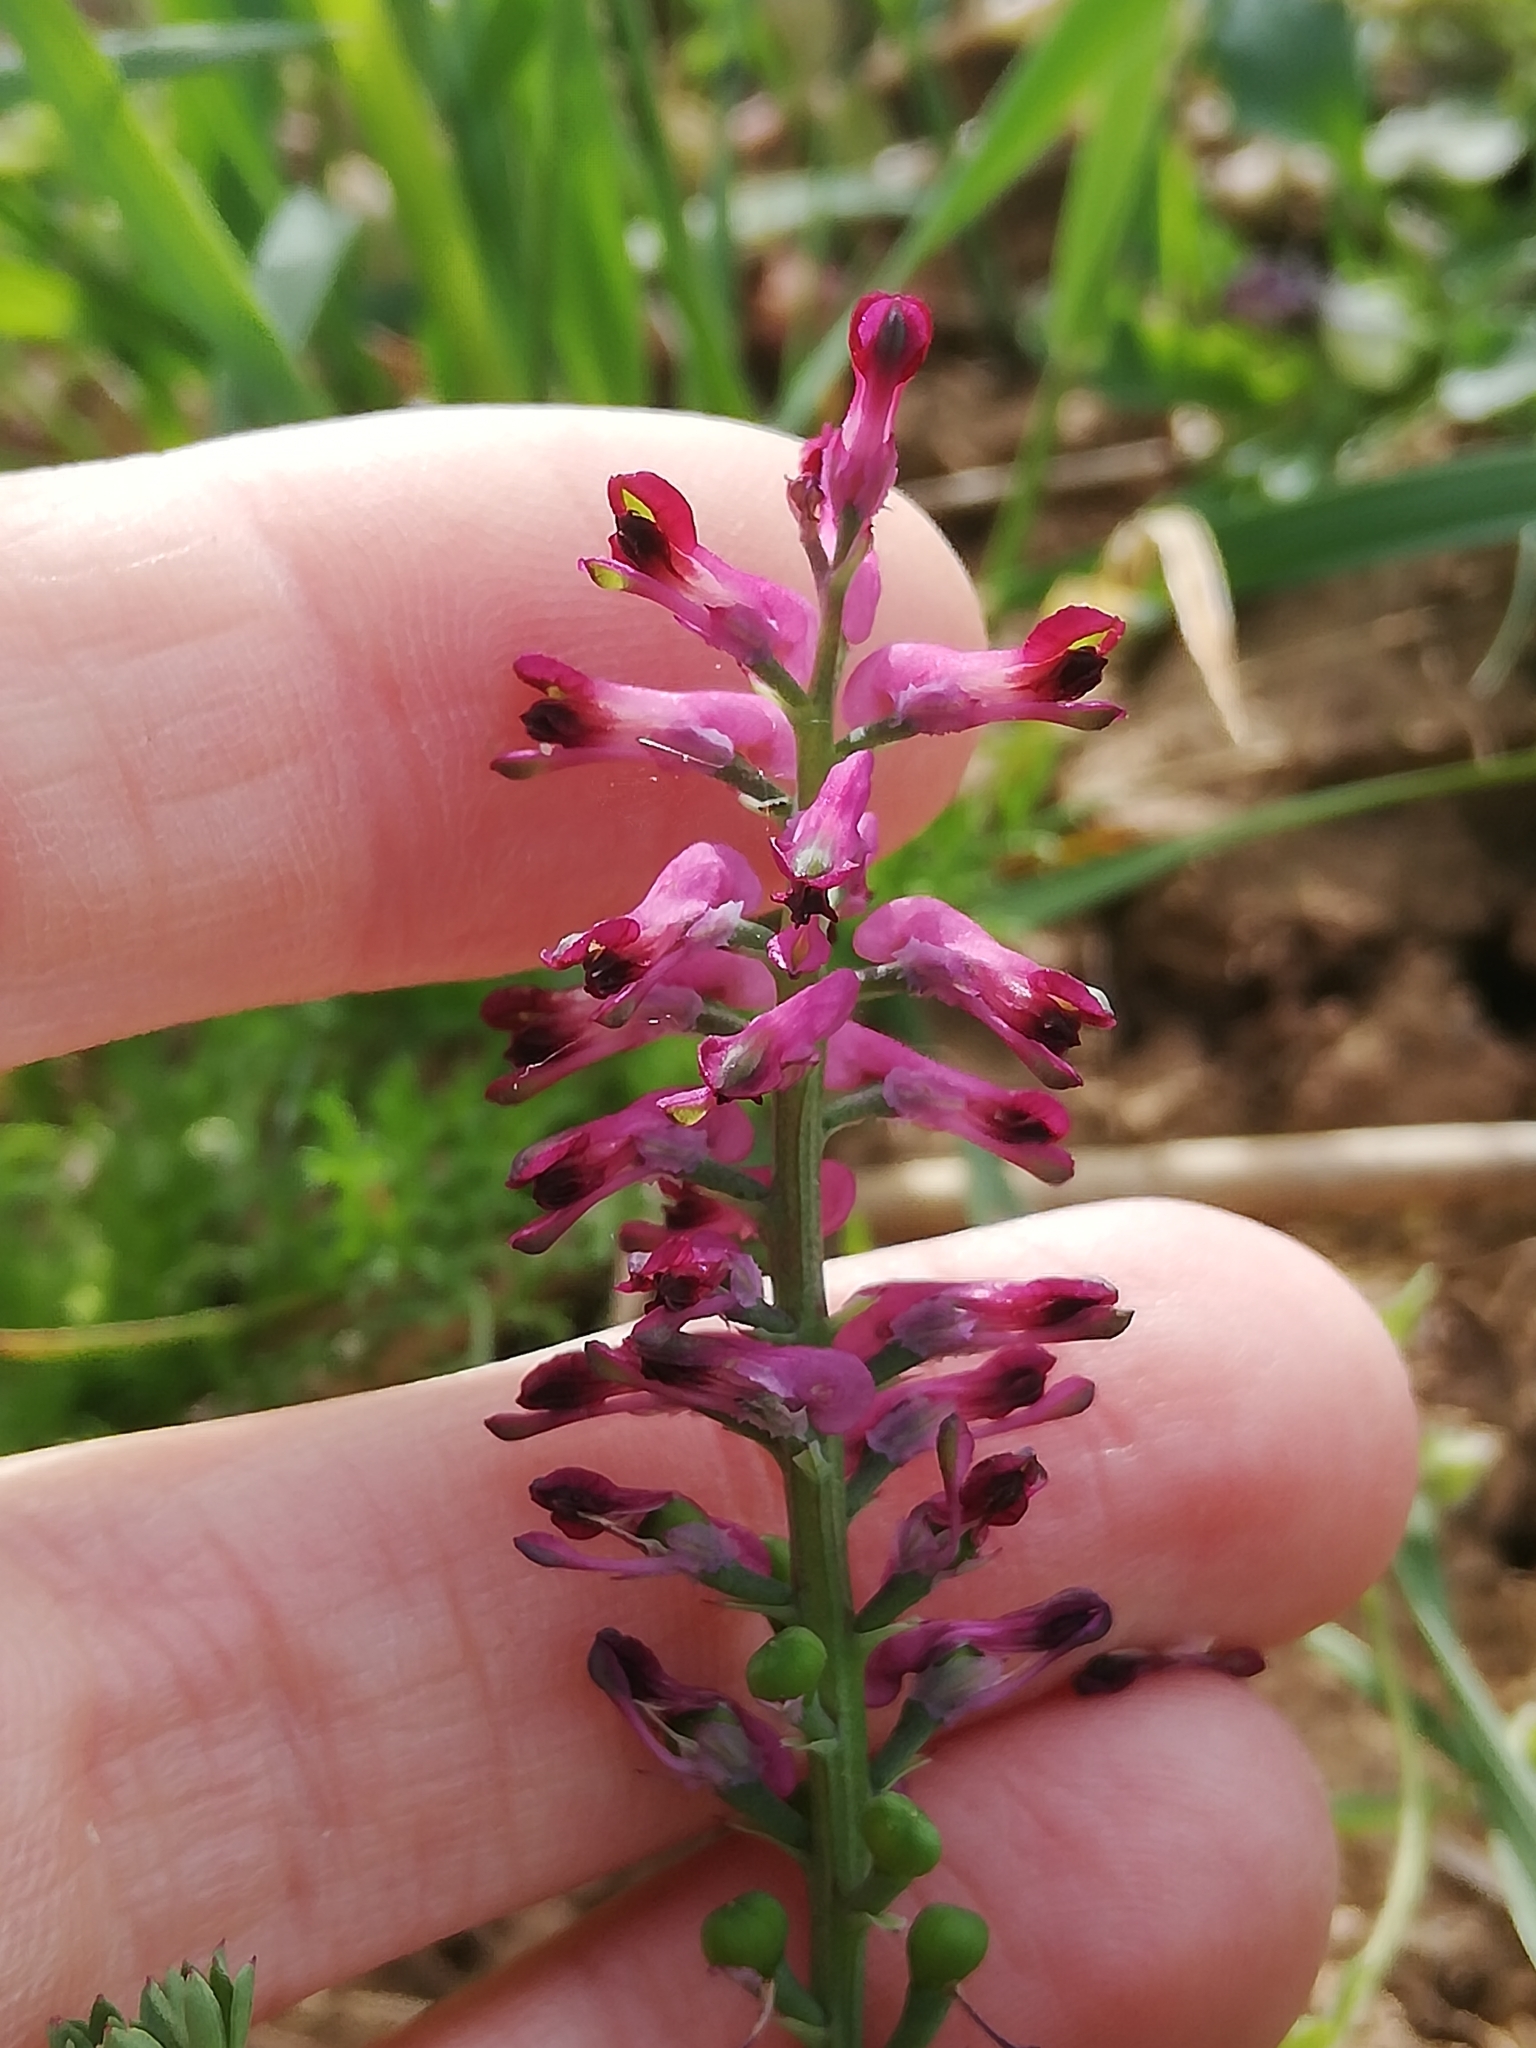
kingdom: Plantae
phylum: Tracheophyta
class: Magnoliopsida
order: Ranunculales
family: Papaveraceae
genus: Fumaria
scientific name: Fumaria officinalis
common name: Common fumitory
